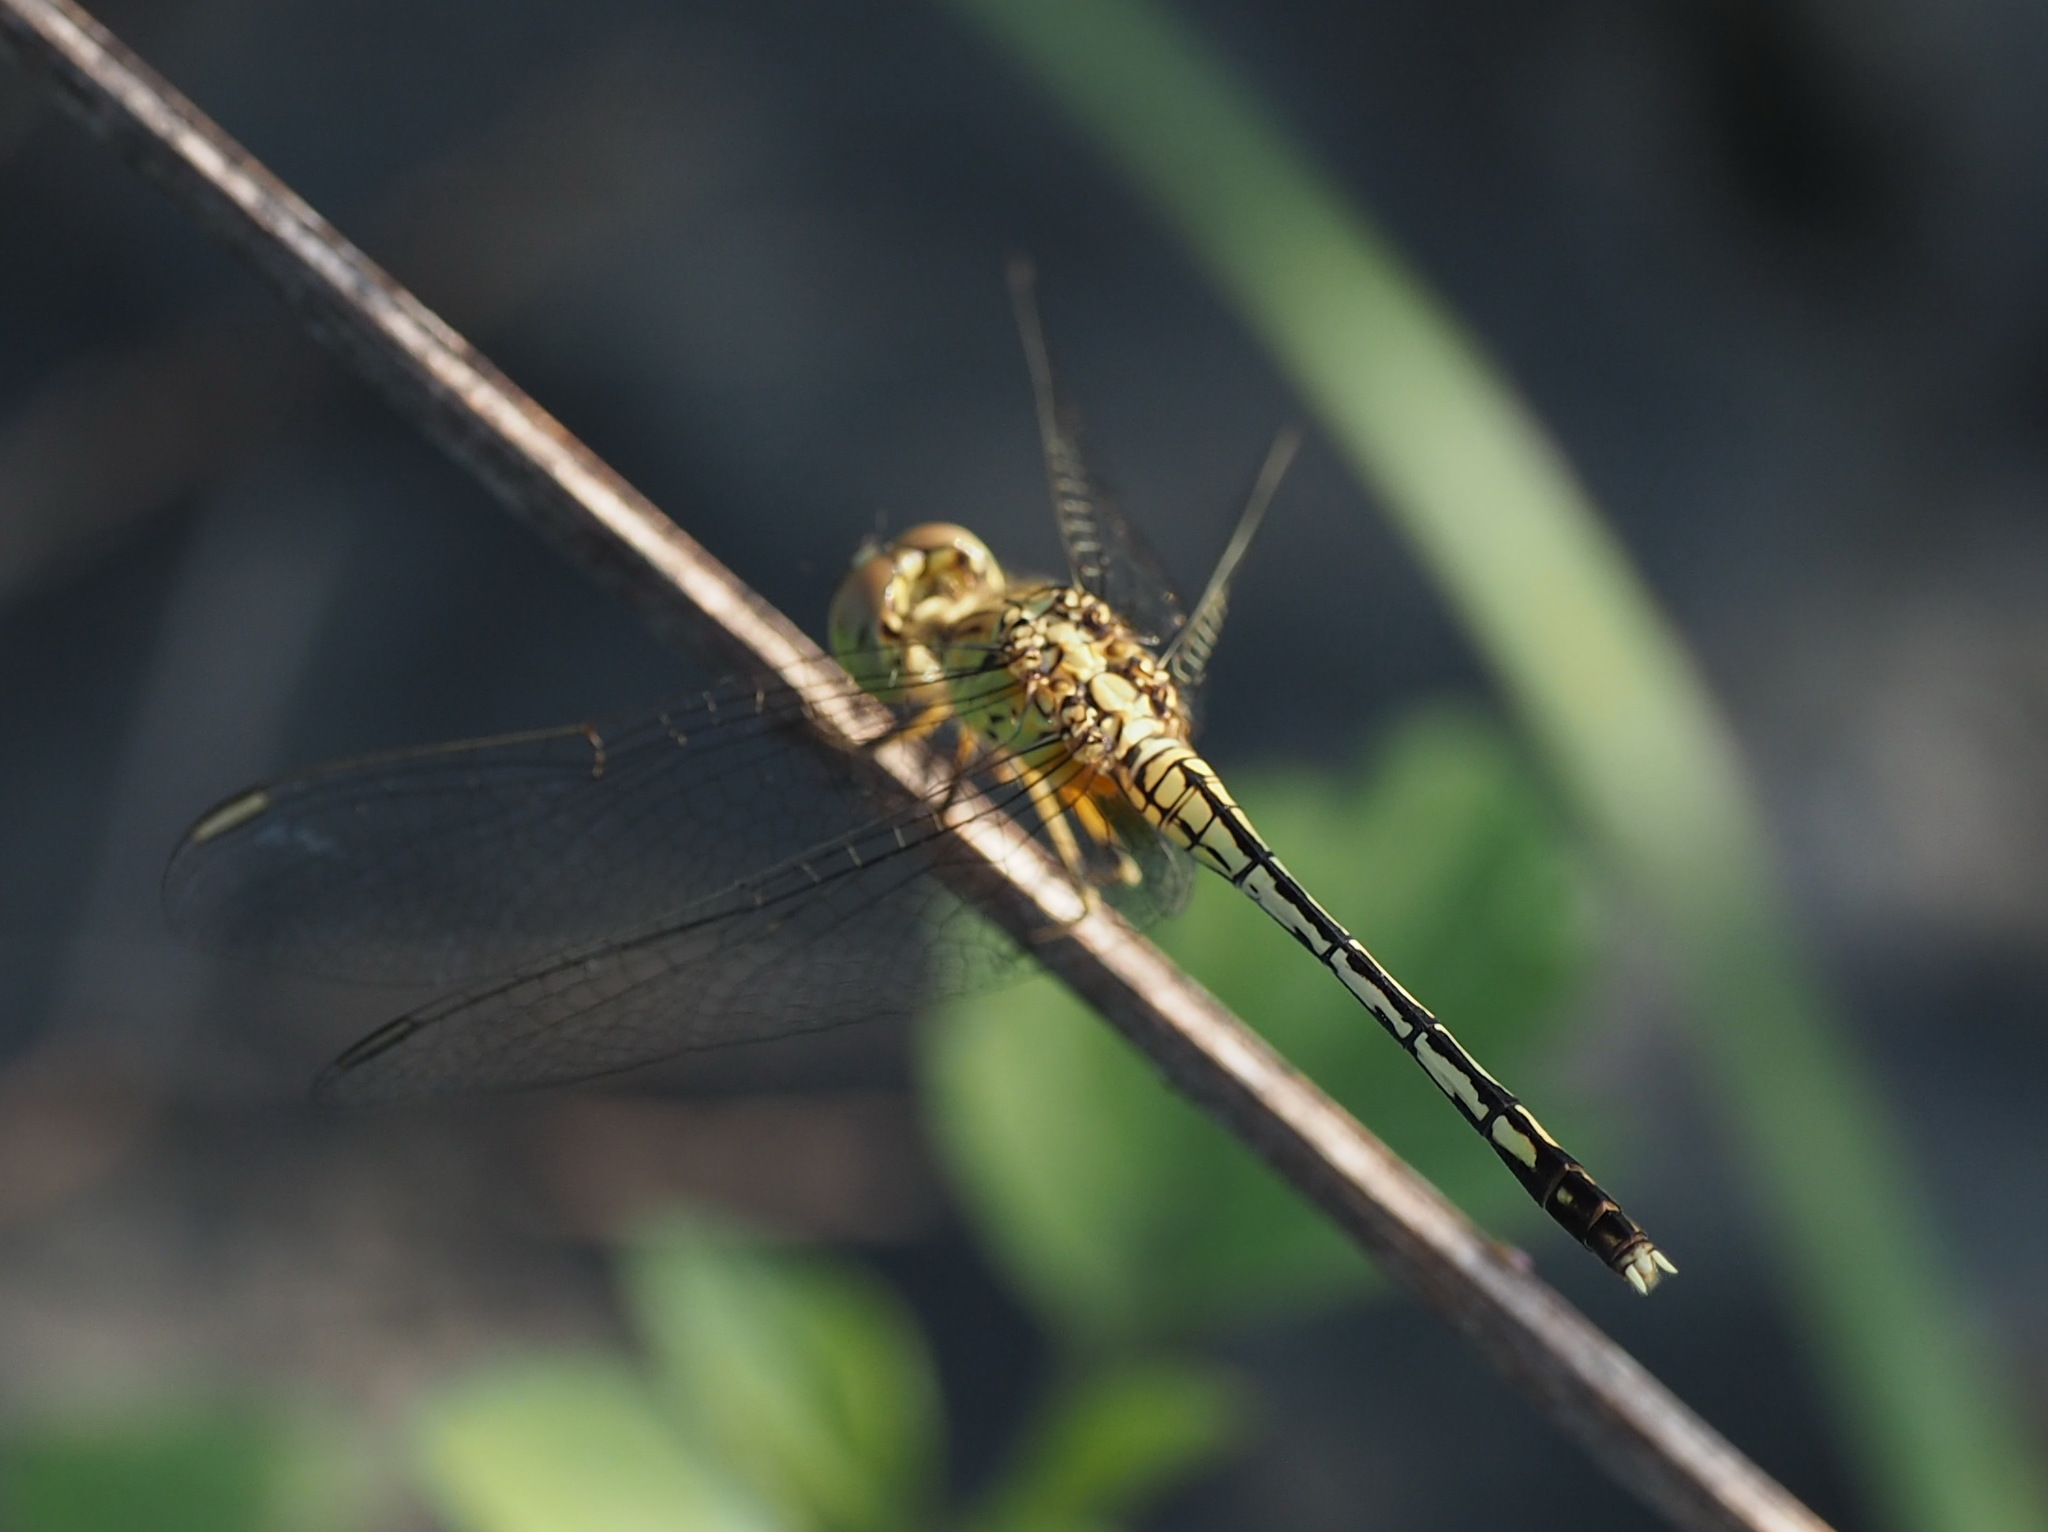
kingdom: Animalia
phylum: Arthropoda
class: Insecta
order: Odonata
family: Libellulidae
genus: Diplacodes
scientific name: Diplacodes trivialis
